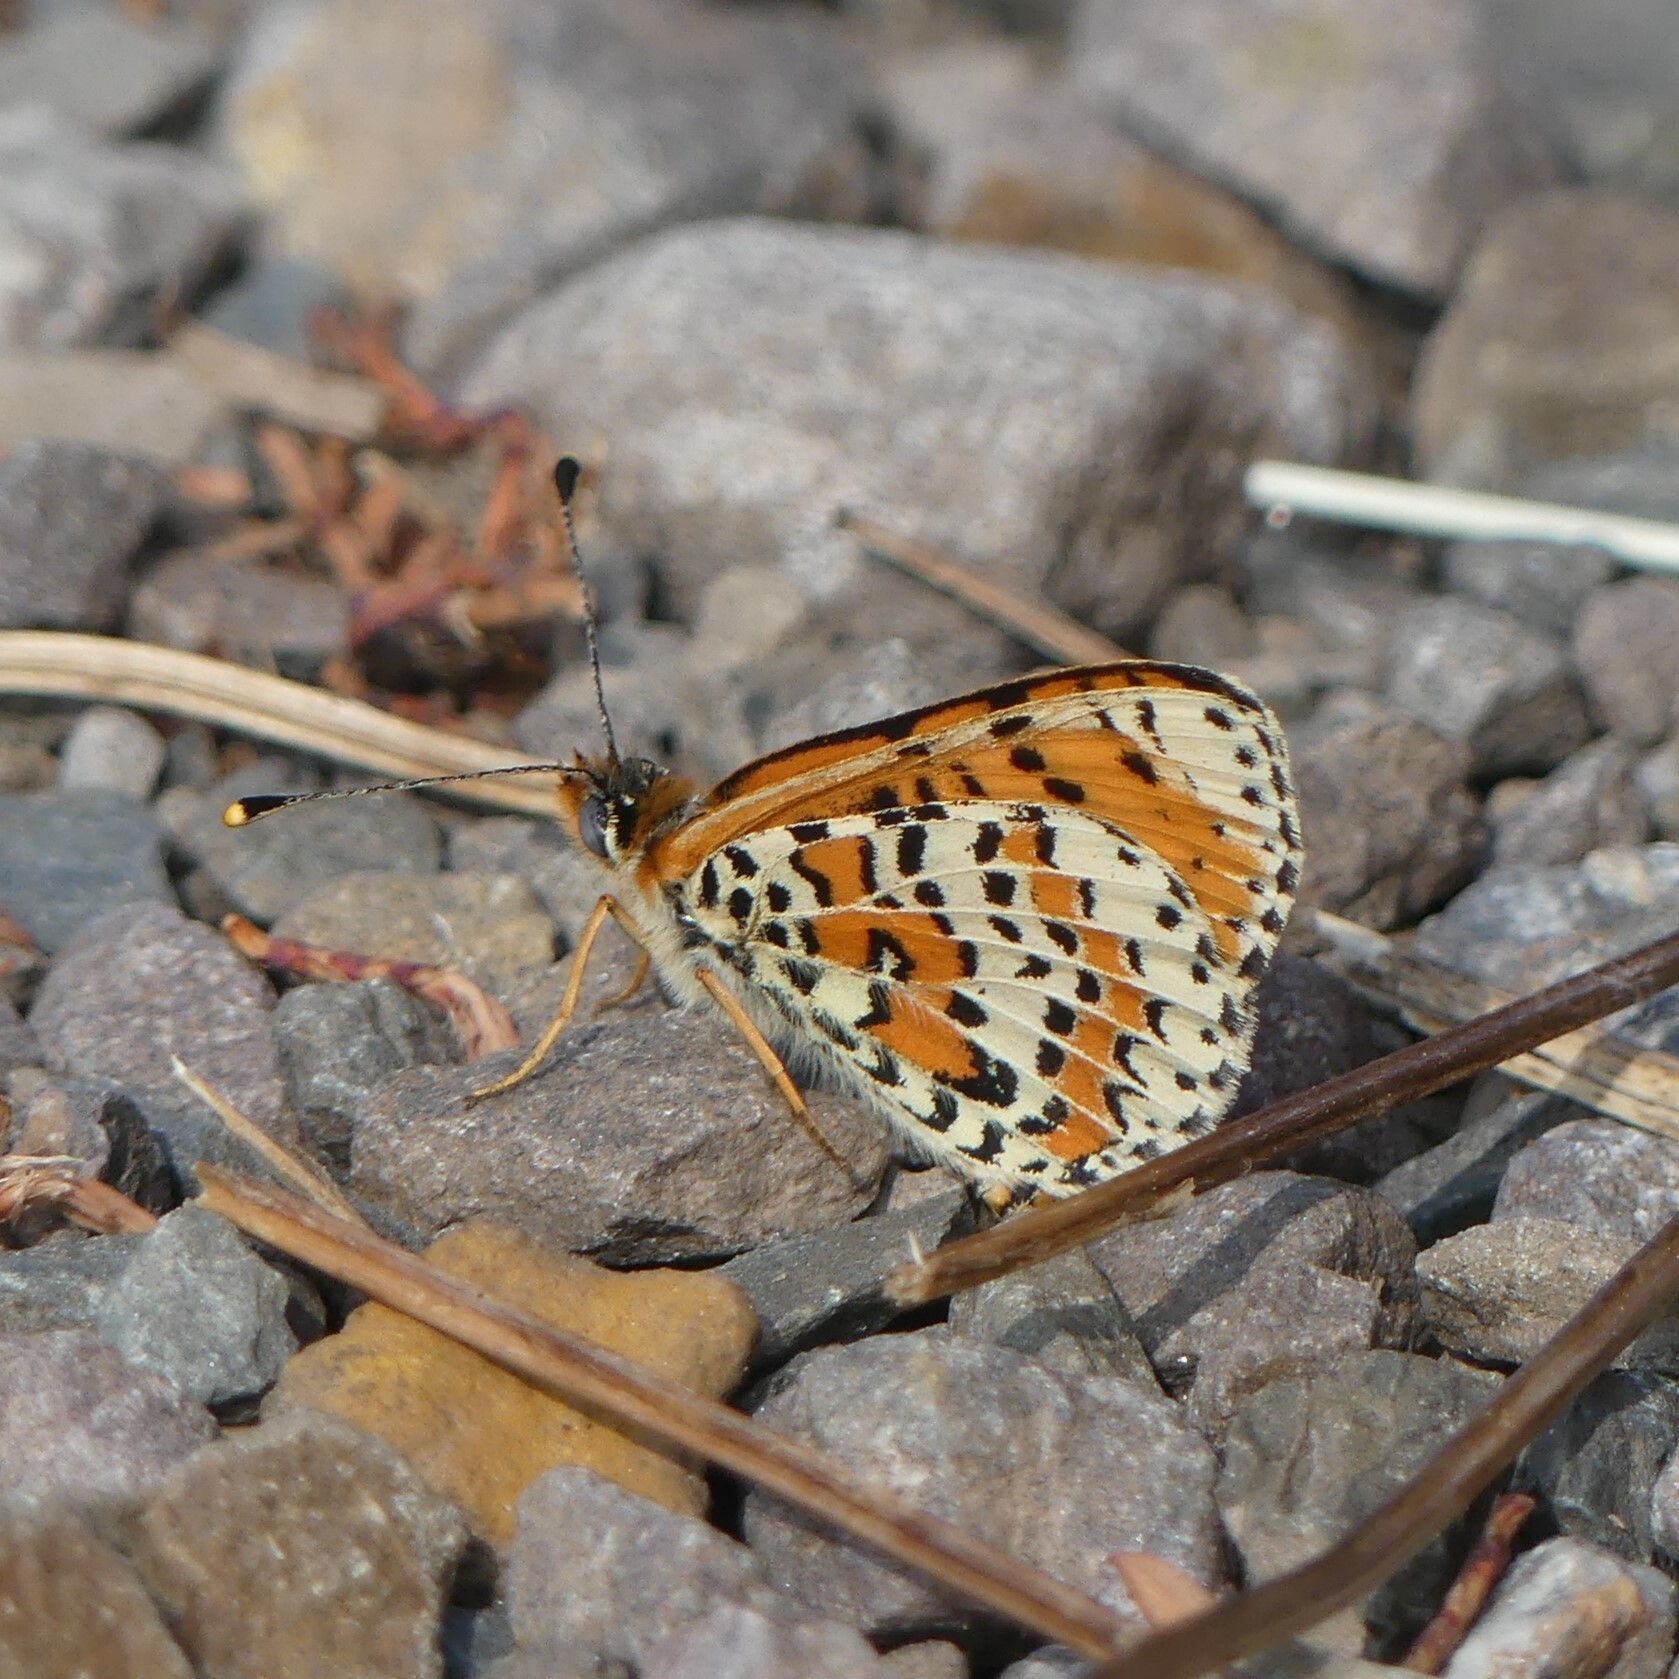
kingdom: Animalia
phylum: Arthropoda
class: Insecta
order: Lepidoptera
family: Nymphalidae
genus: Melitaea
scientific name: Melitaea didyma
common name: Spotted fritillary
